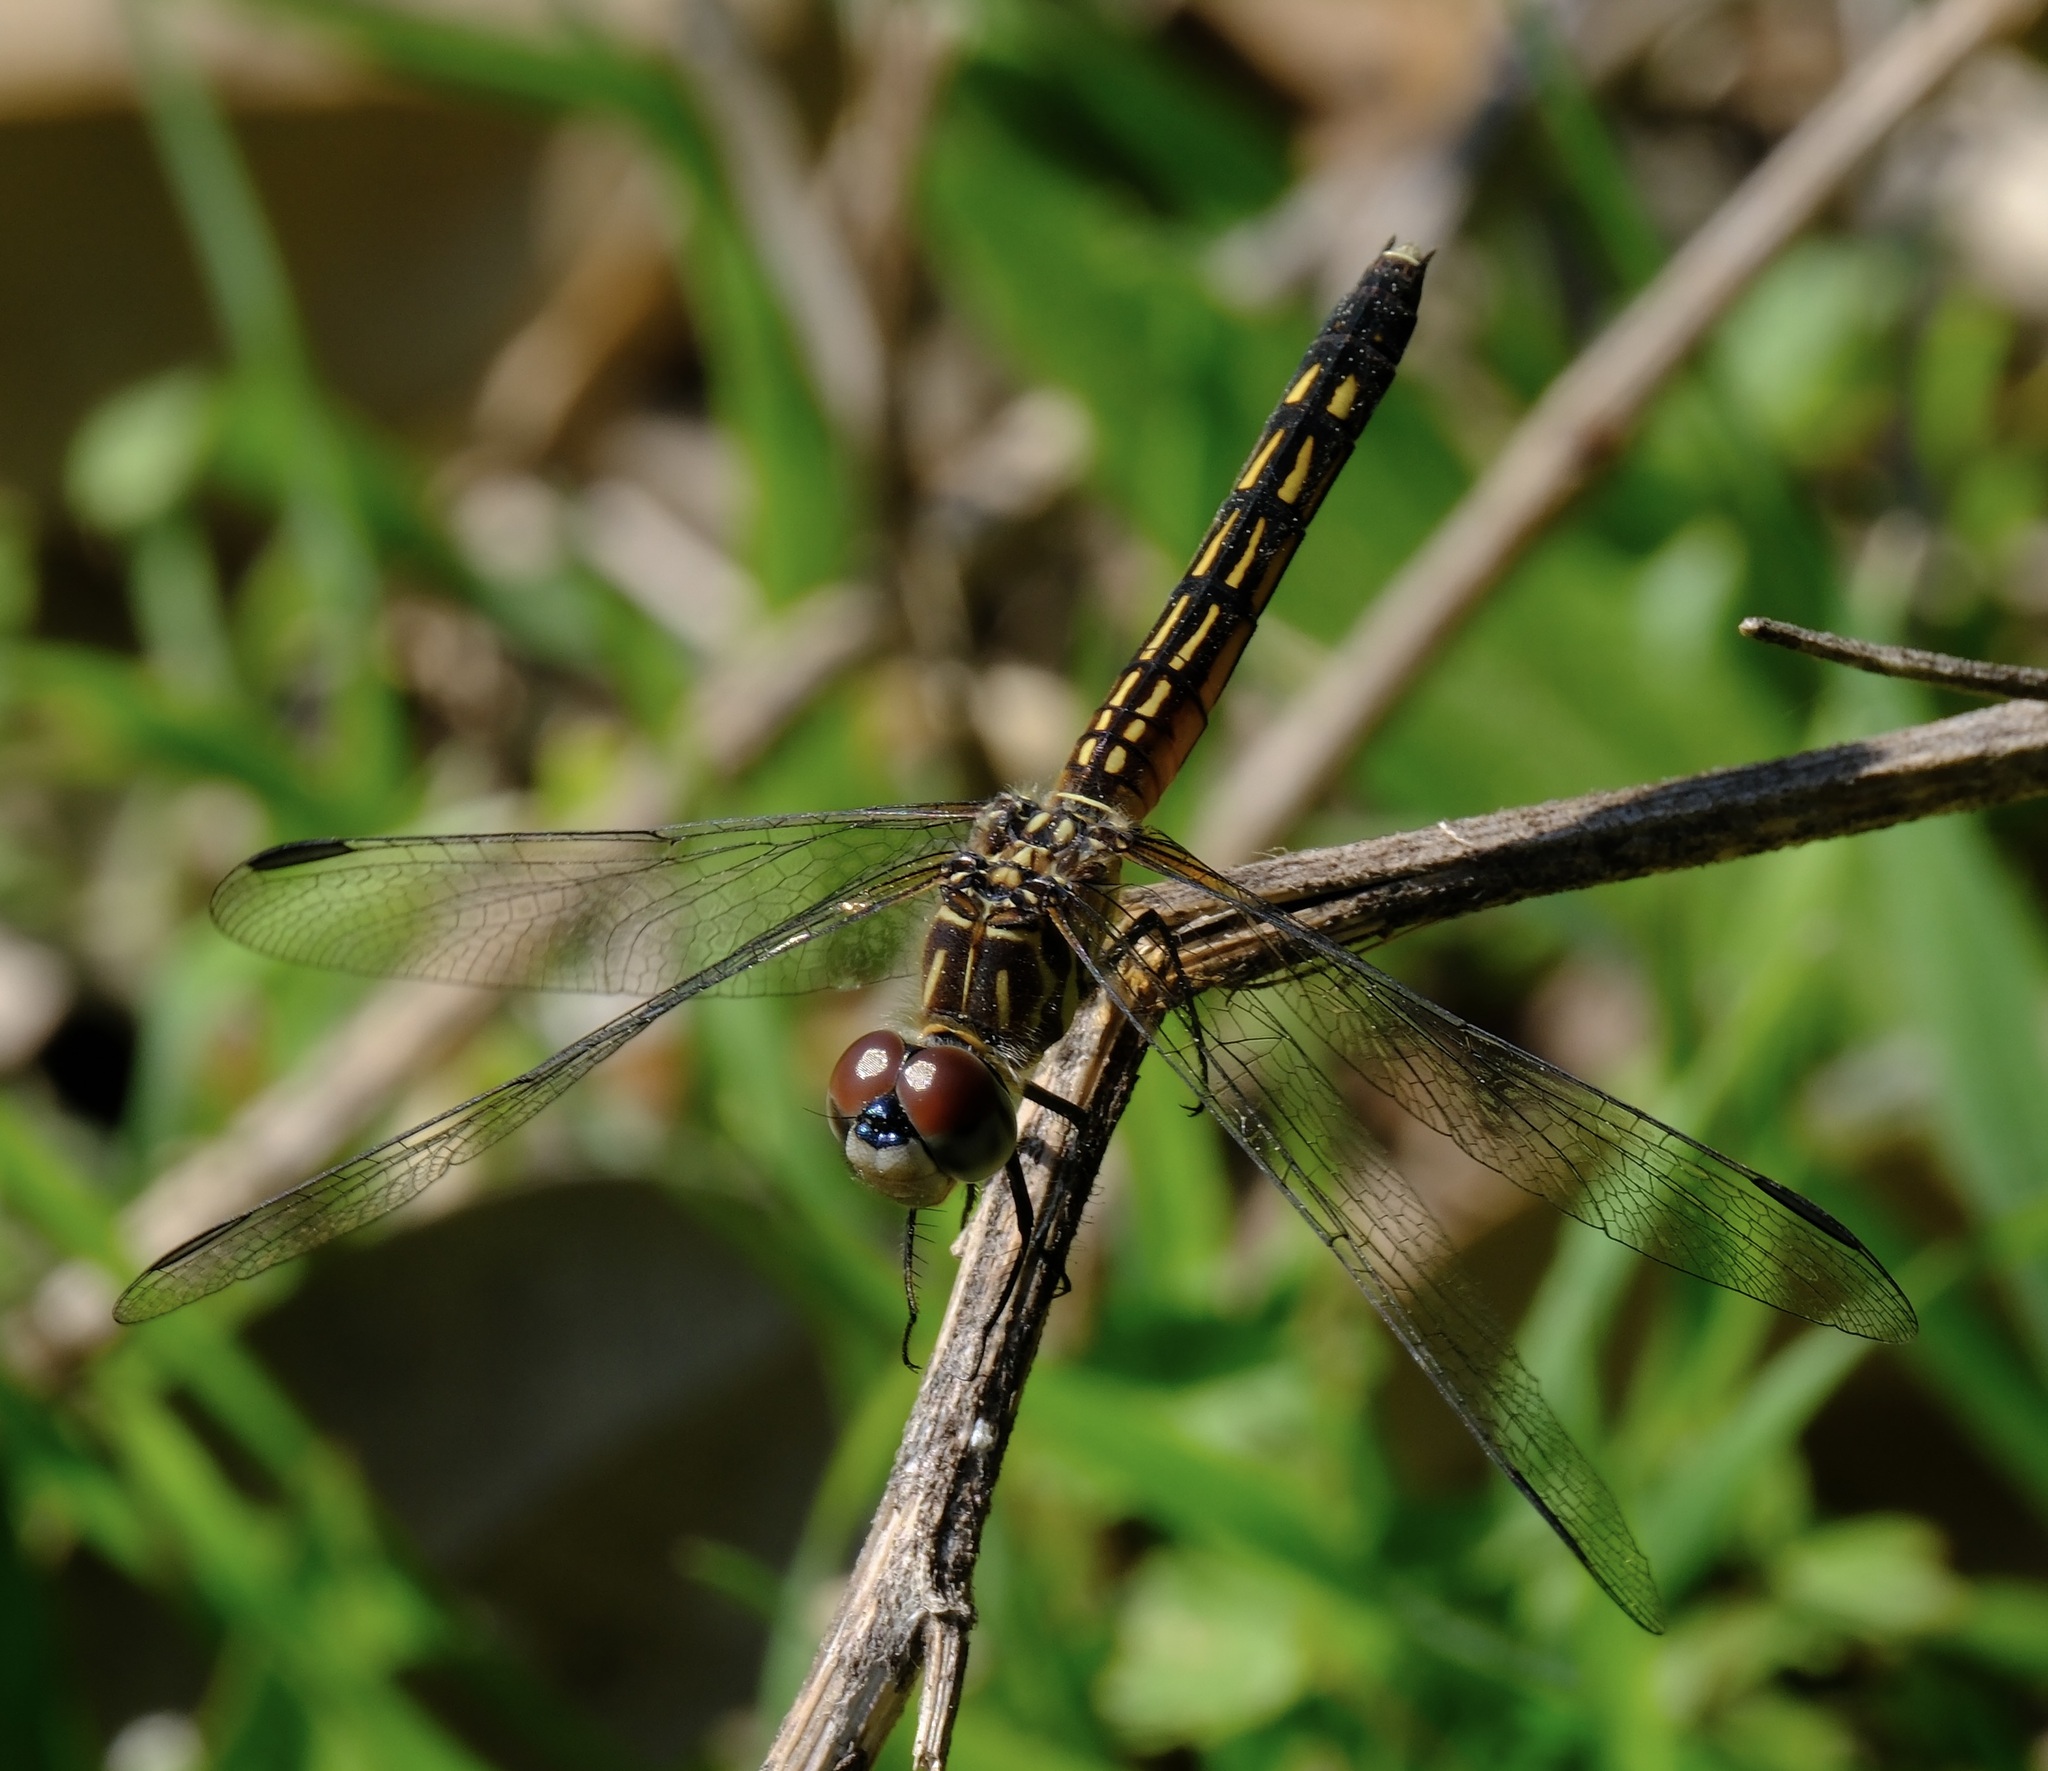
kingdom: Animalia
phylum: Arthropoda
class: Insecta
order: Odonata
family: Libellulidae
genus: Pachydiplax
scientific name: Pachydiplax longipennis
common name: Blue dasher
